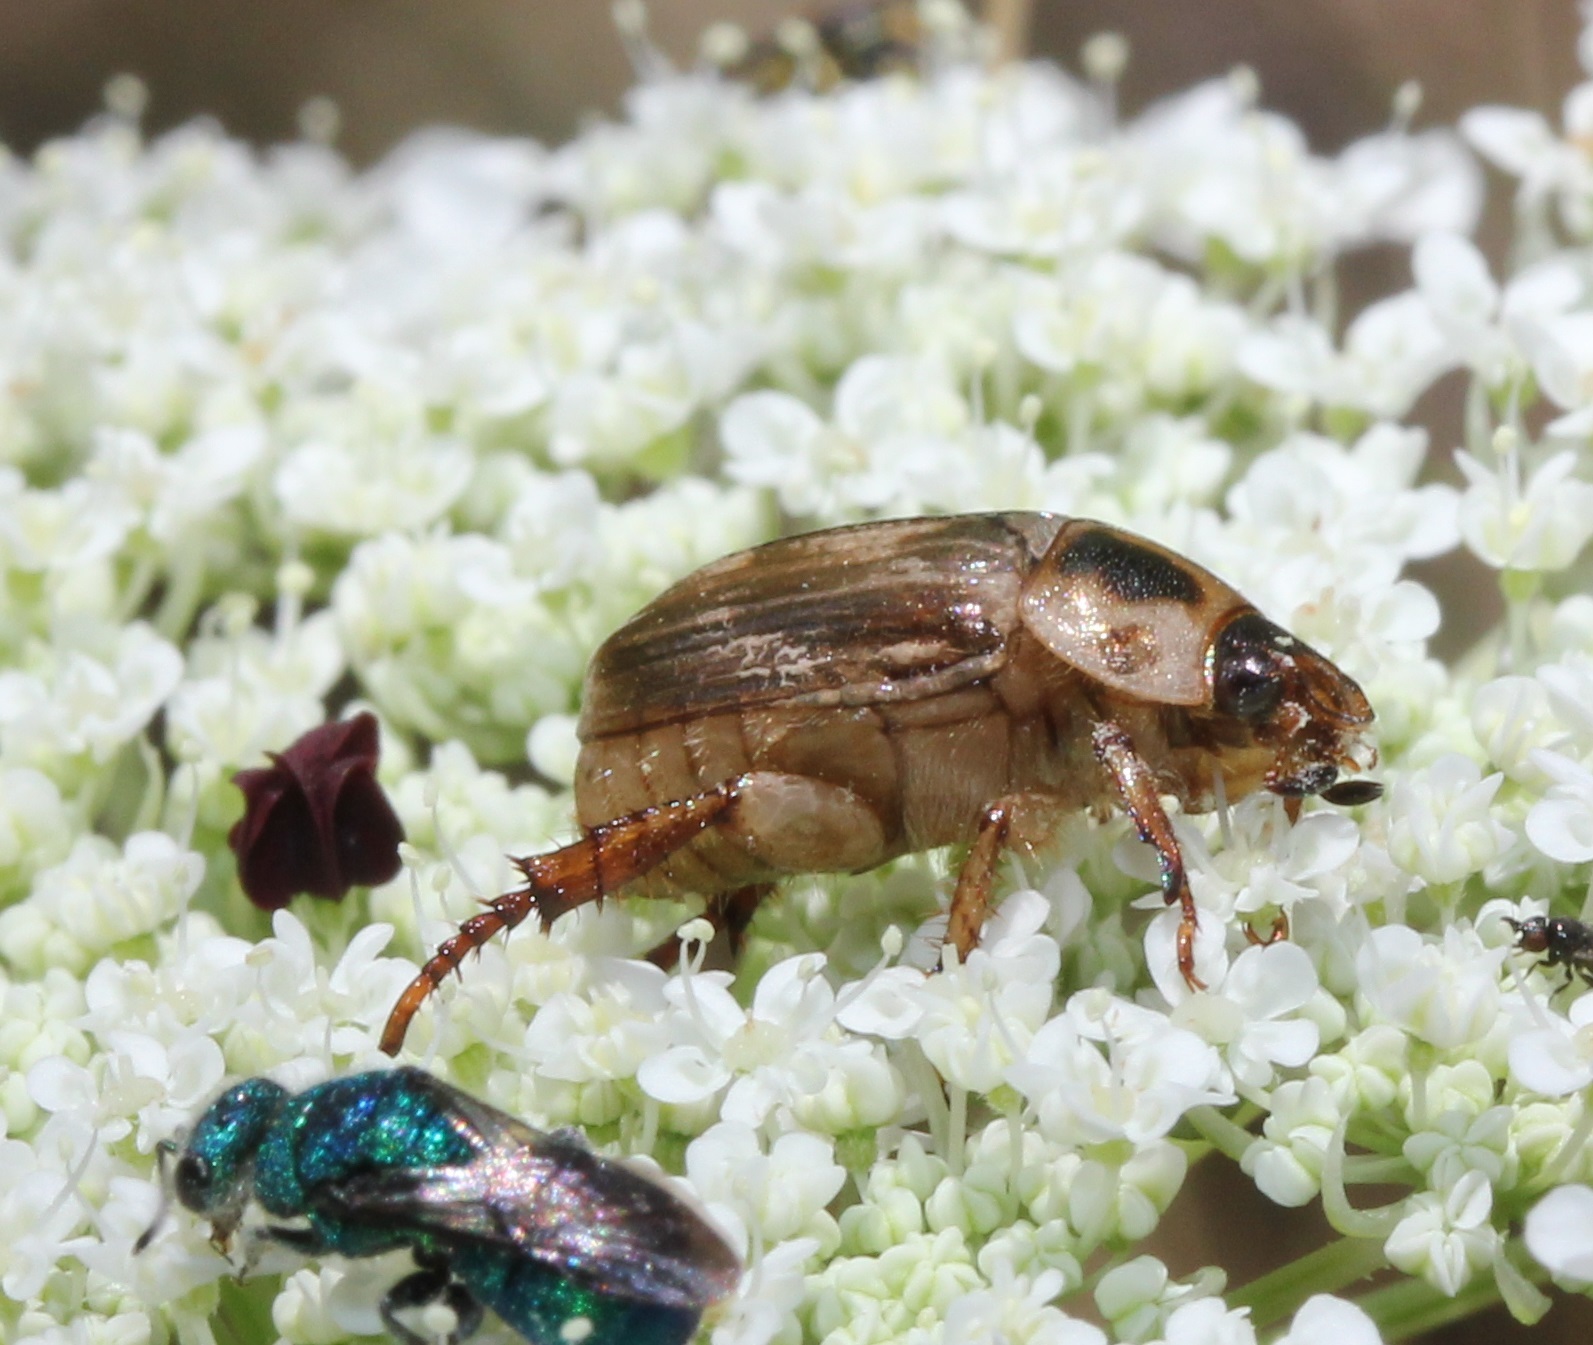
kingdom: Animalia
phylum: Arthropoda
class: Insecta
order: Coleoptera
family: Scarabaeidae
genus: Exomala
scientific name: Exomala orientalis
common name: Oriental beetle
